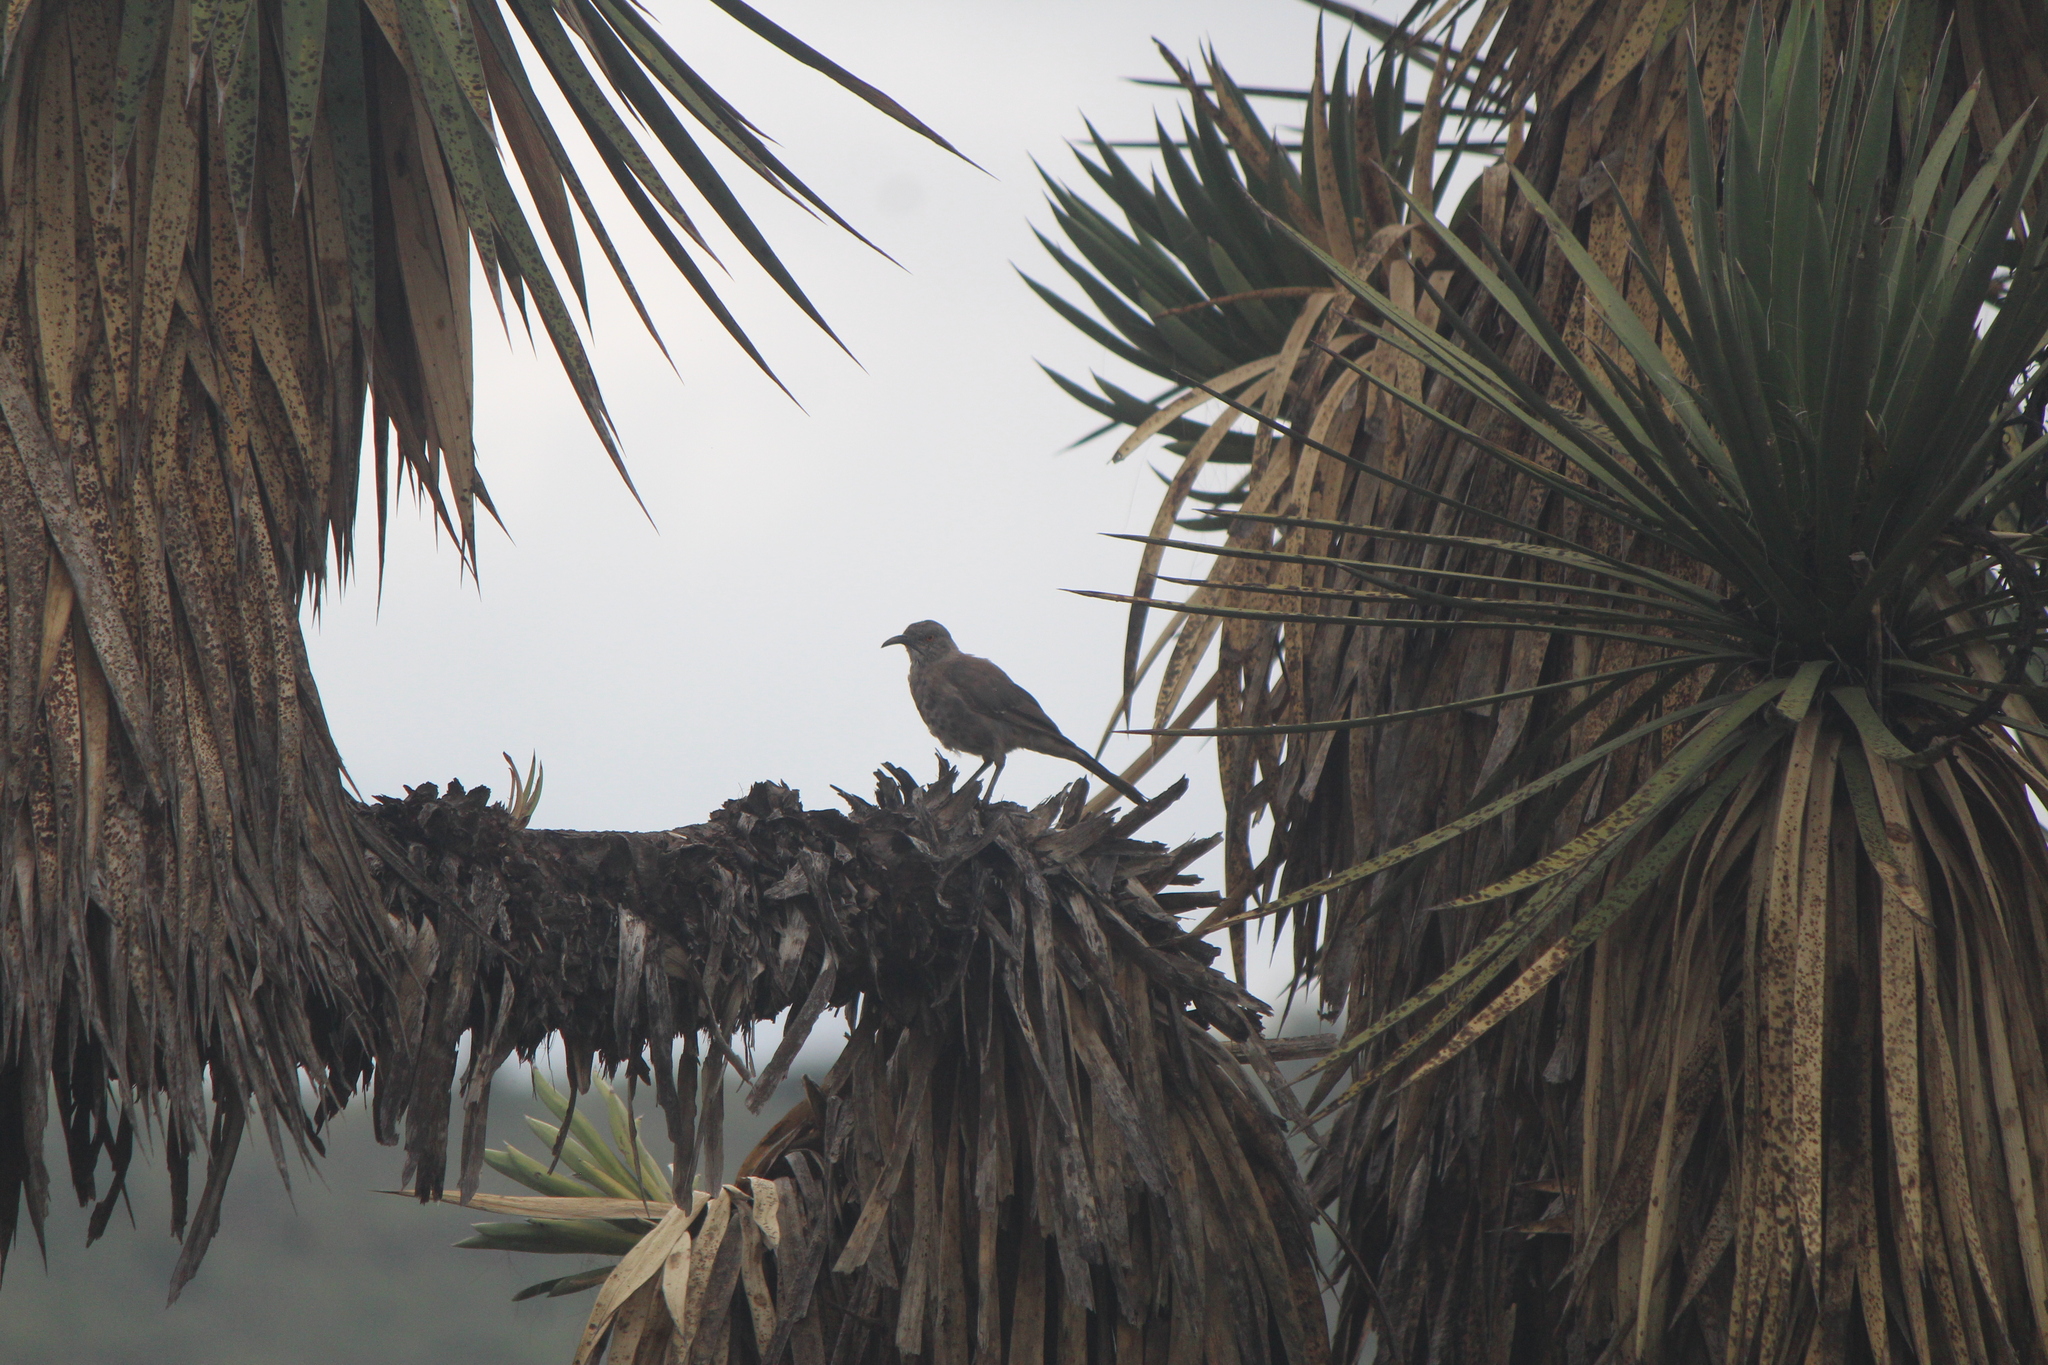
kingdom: Animalia
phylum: Chordata
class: Aves
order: Passeriformes
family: Mimidae
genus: Toxostoma
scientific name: Toxostoma curvirostre
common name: Curve-billed thrasher
